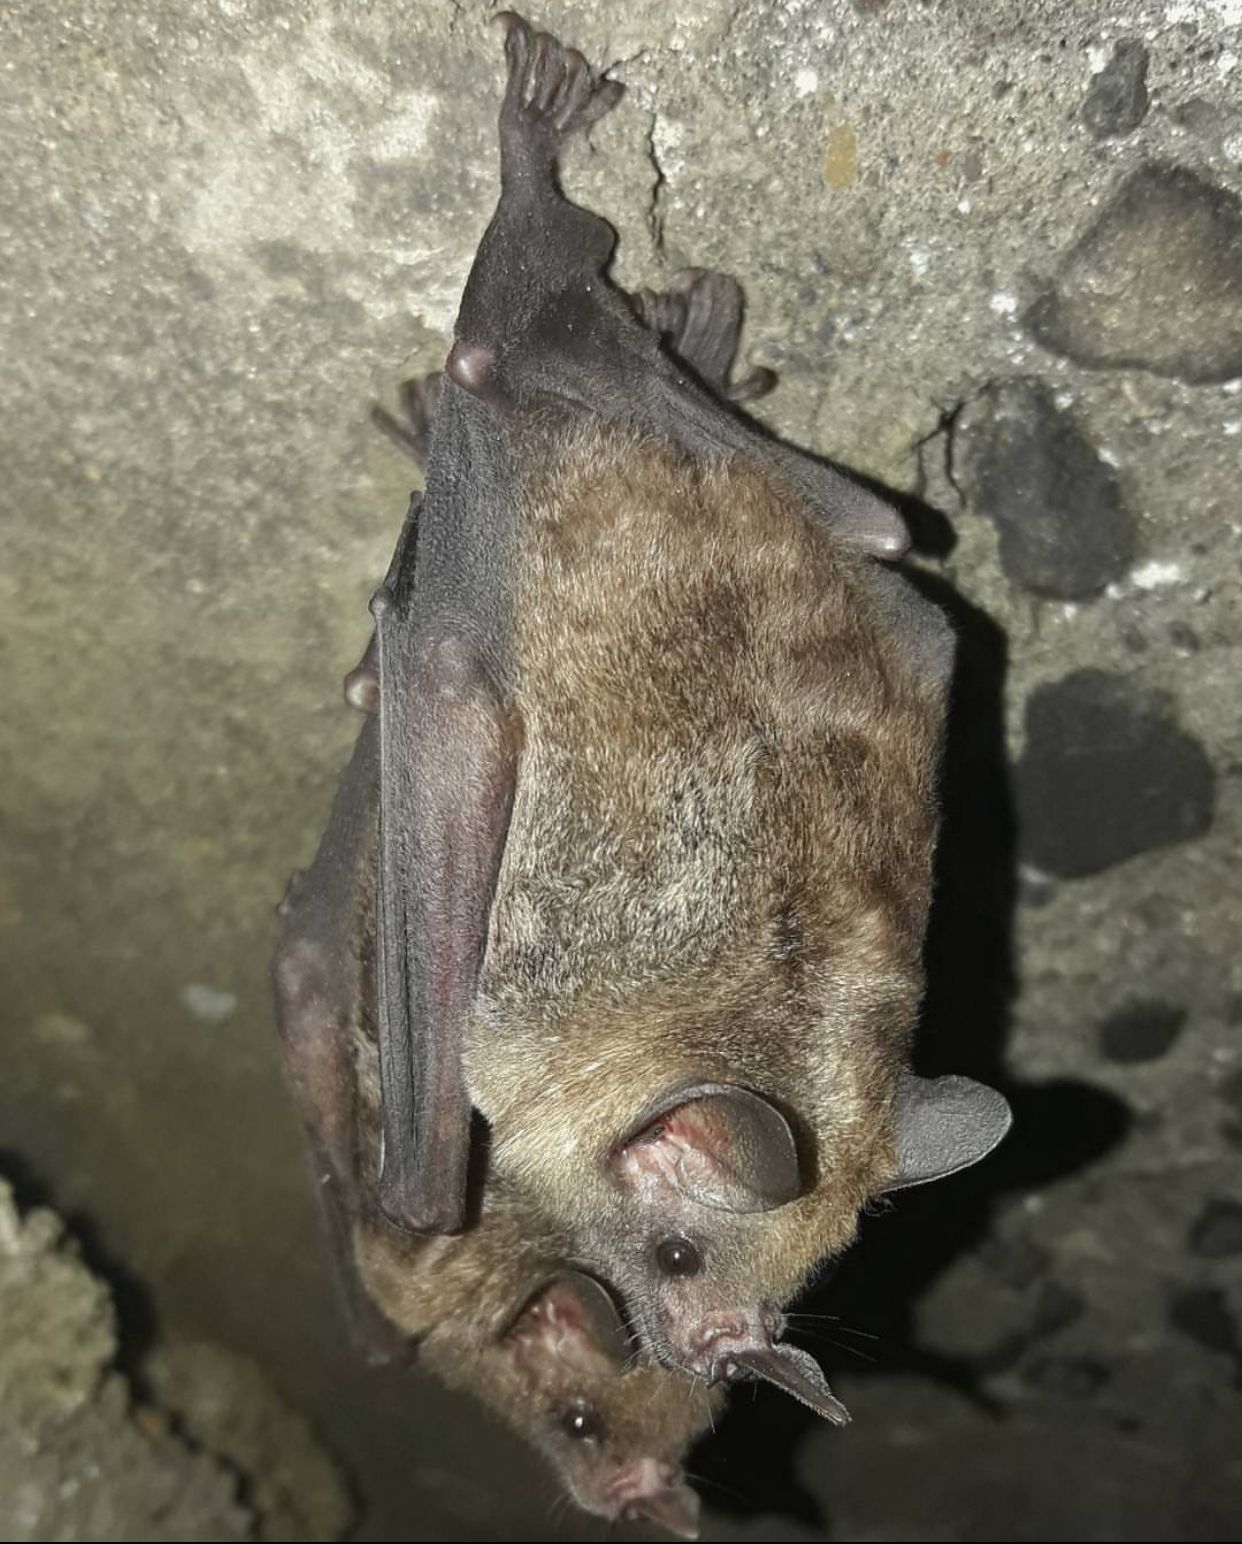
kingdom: Animalia
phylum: Chordata
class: Mammalia
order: Chiroptera
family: Phyllostomidae
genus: Carollia
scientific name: Carollia perspicillata
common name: Seba's short-tailed bat
